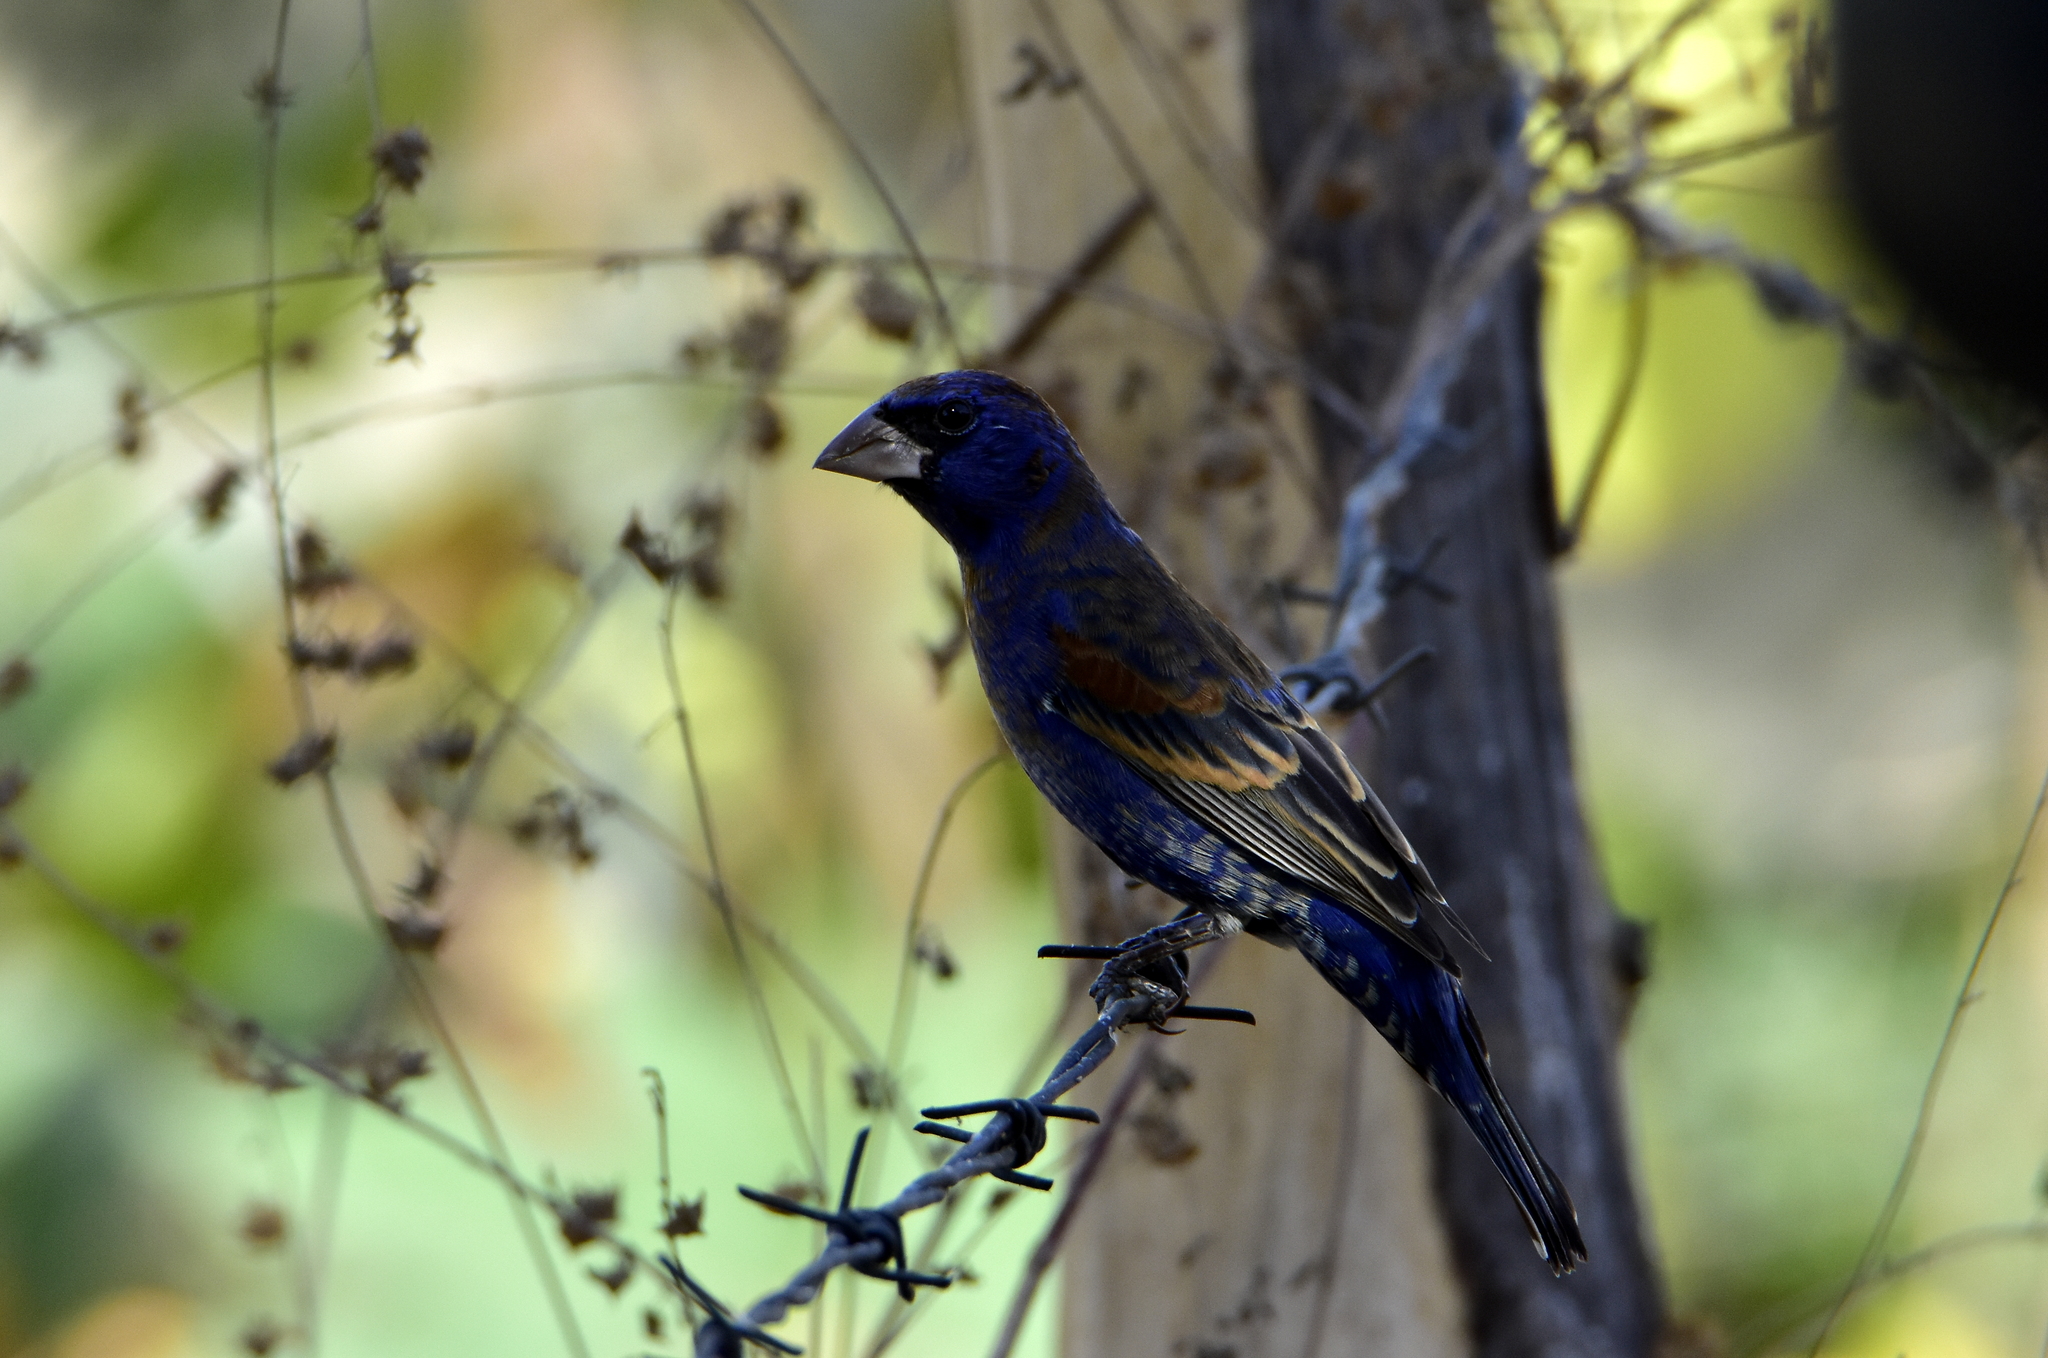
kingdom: Animalia
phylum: Chordata
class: Aves
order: Passeriformes
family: Cardinalidae
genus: Passerina
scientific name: Passerina caerulea
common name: Blue grosbeak
